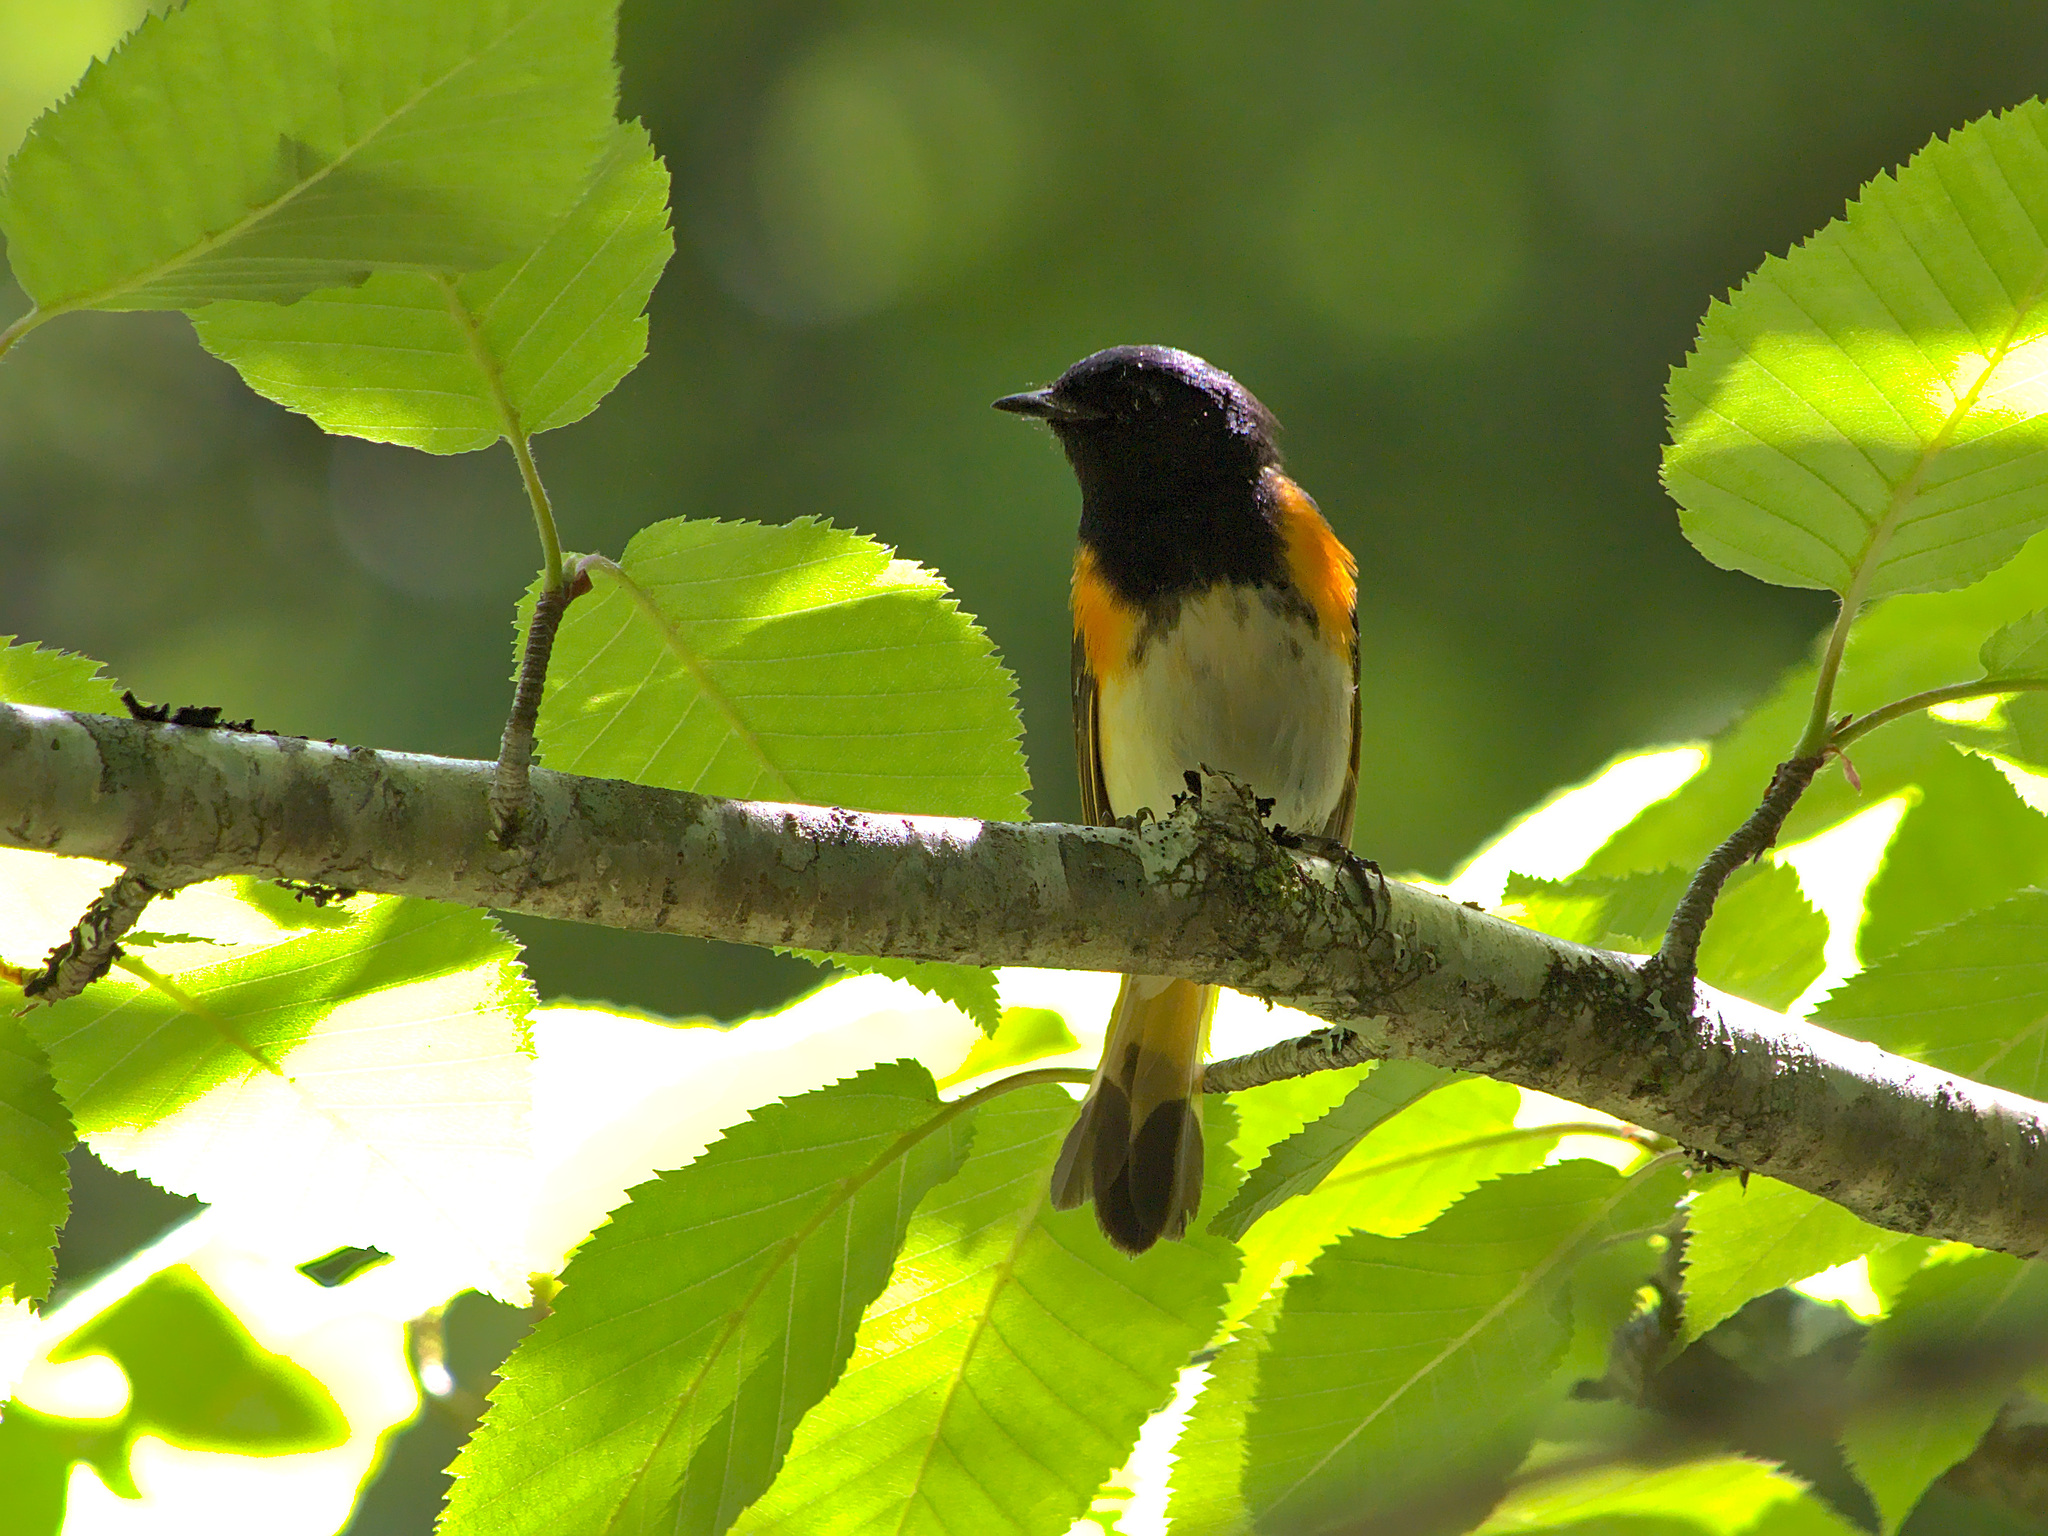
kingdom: Animalia
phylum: Chordata
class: Aves
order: Passeriformes
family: Parulidae
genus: Setophaga
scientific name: Setophaga ruticilla
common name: American redstart
